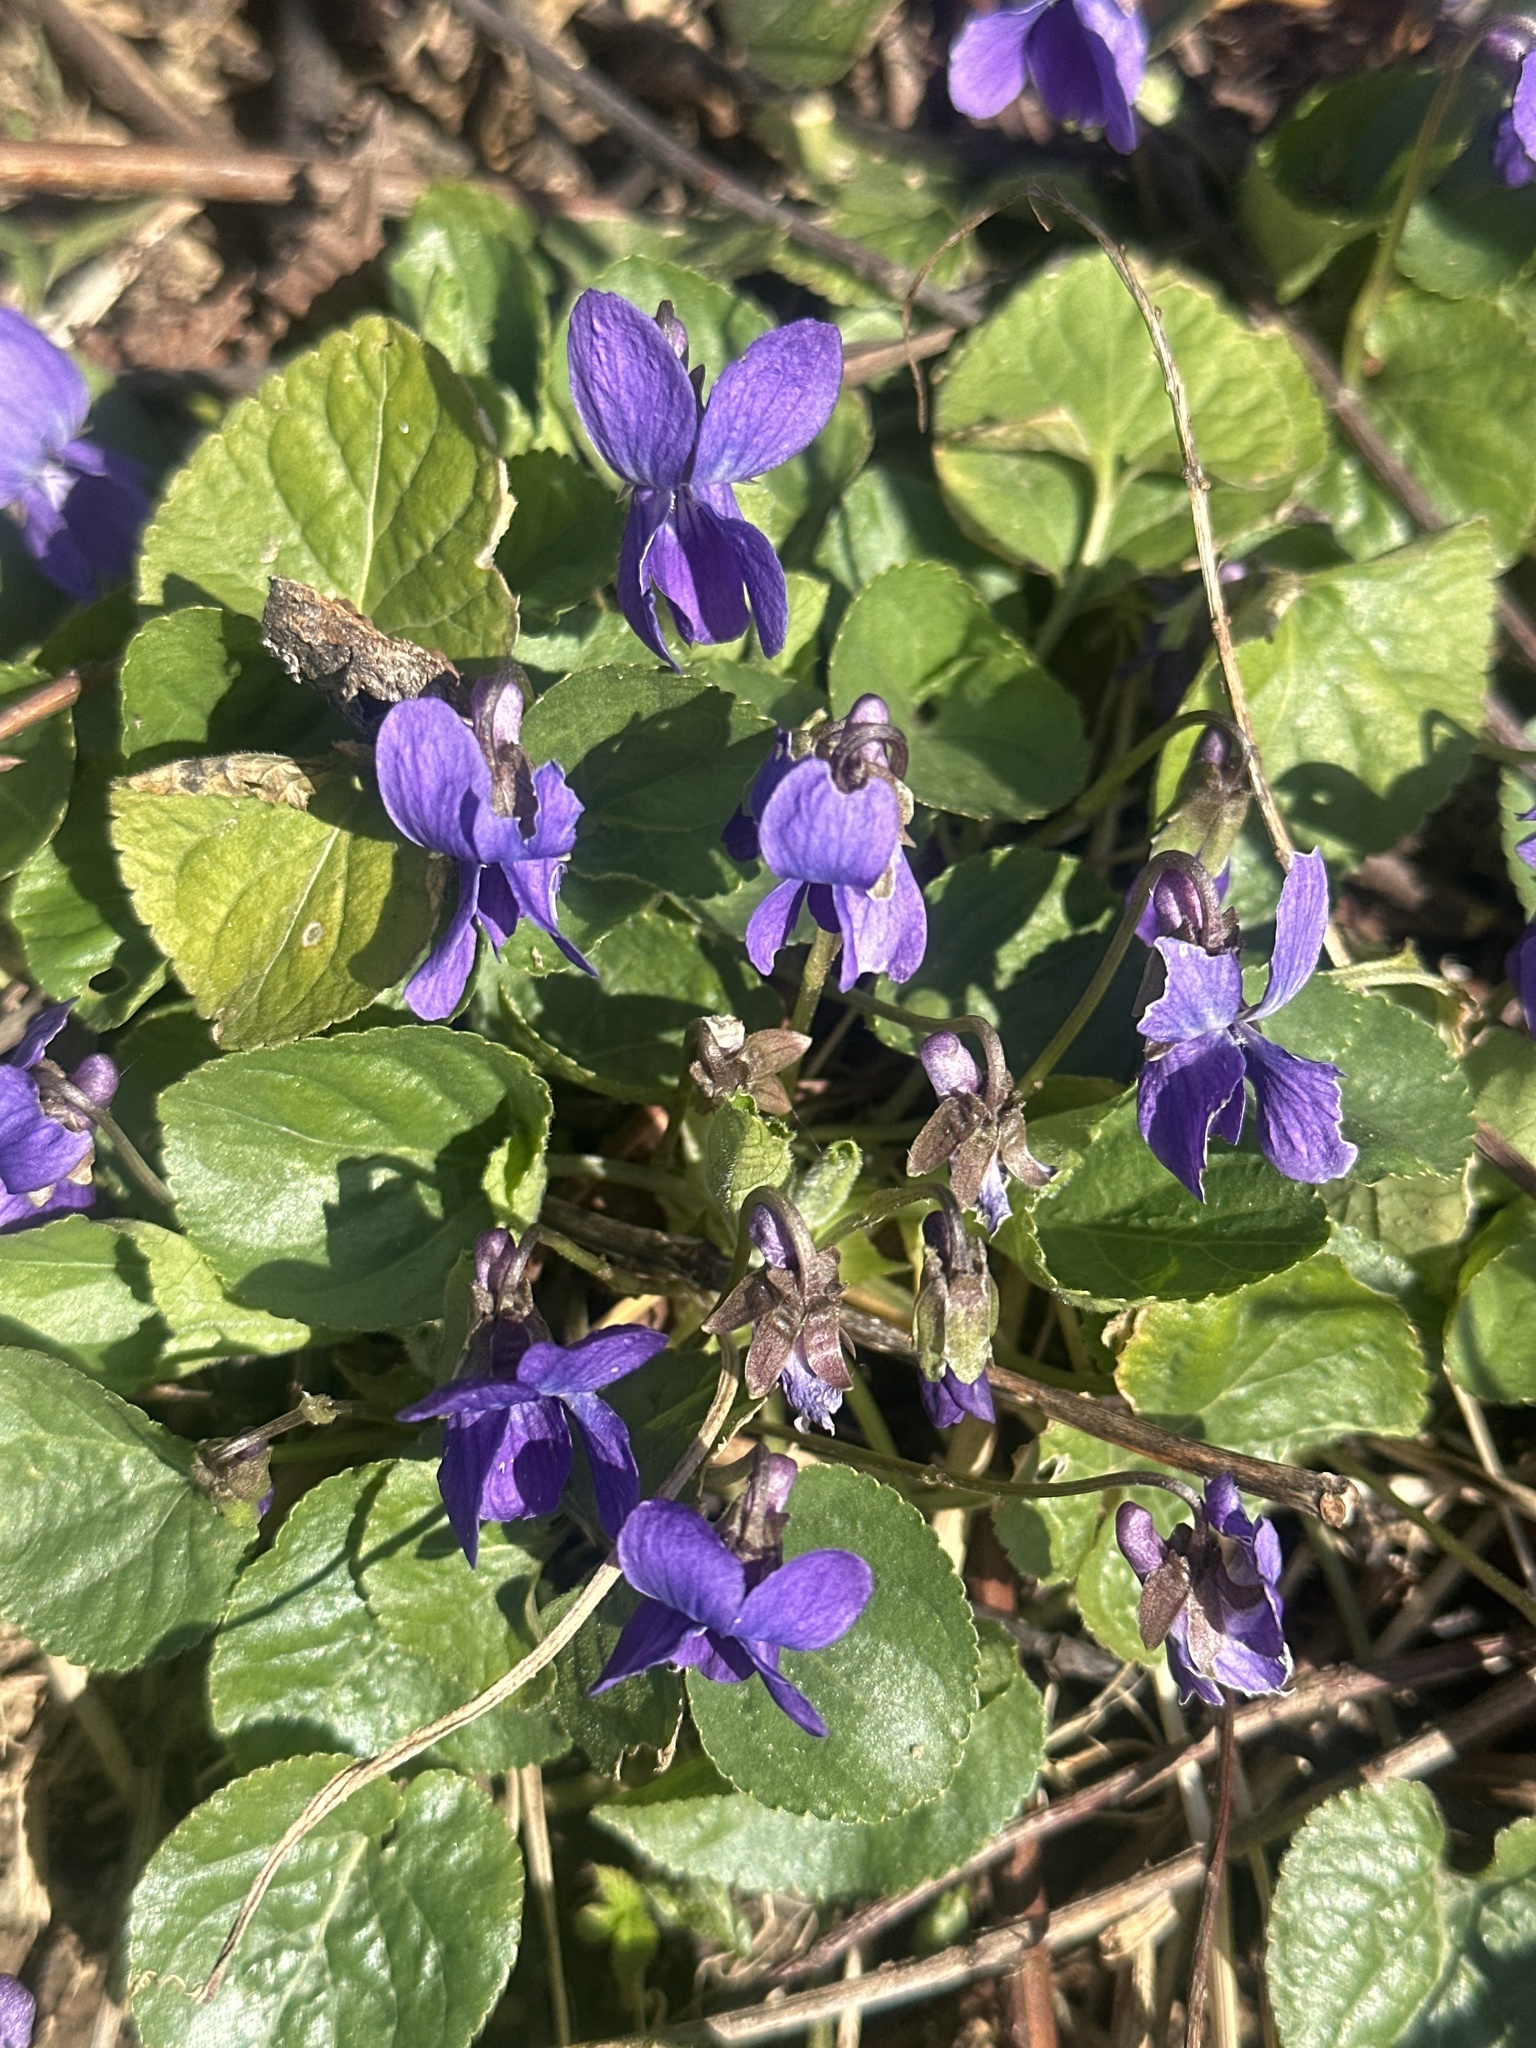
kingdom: Plantae
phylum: Tracheophyta
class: Magnoliopsida
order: Malpighiales
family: Violaceae
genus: Viola
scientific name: Viola odorata
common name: Sweet violet
